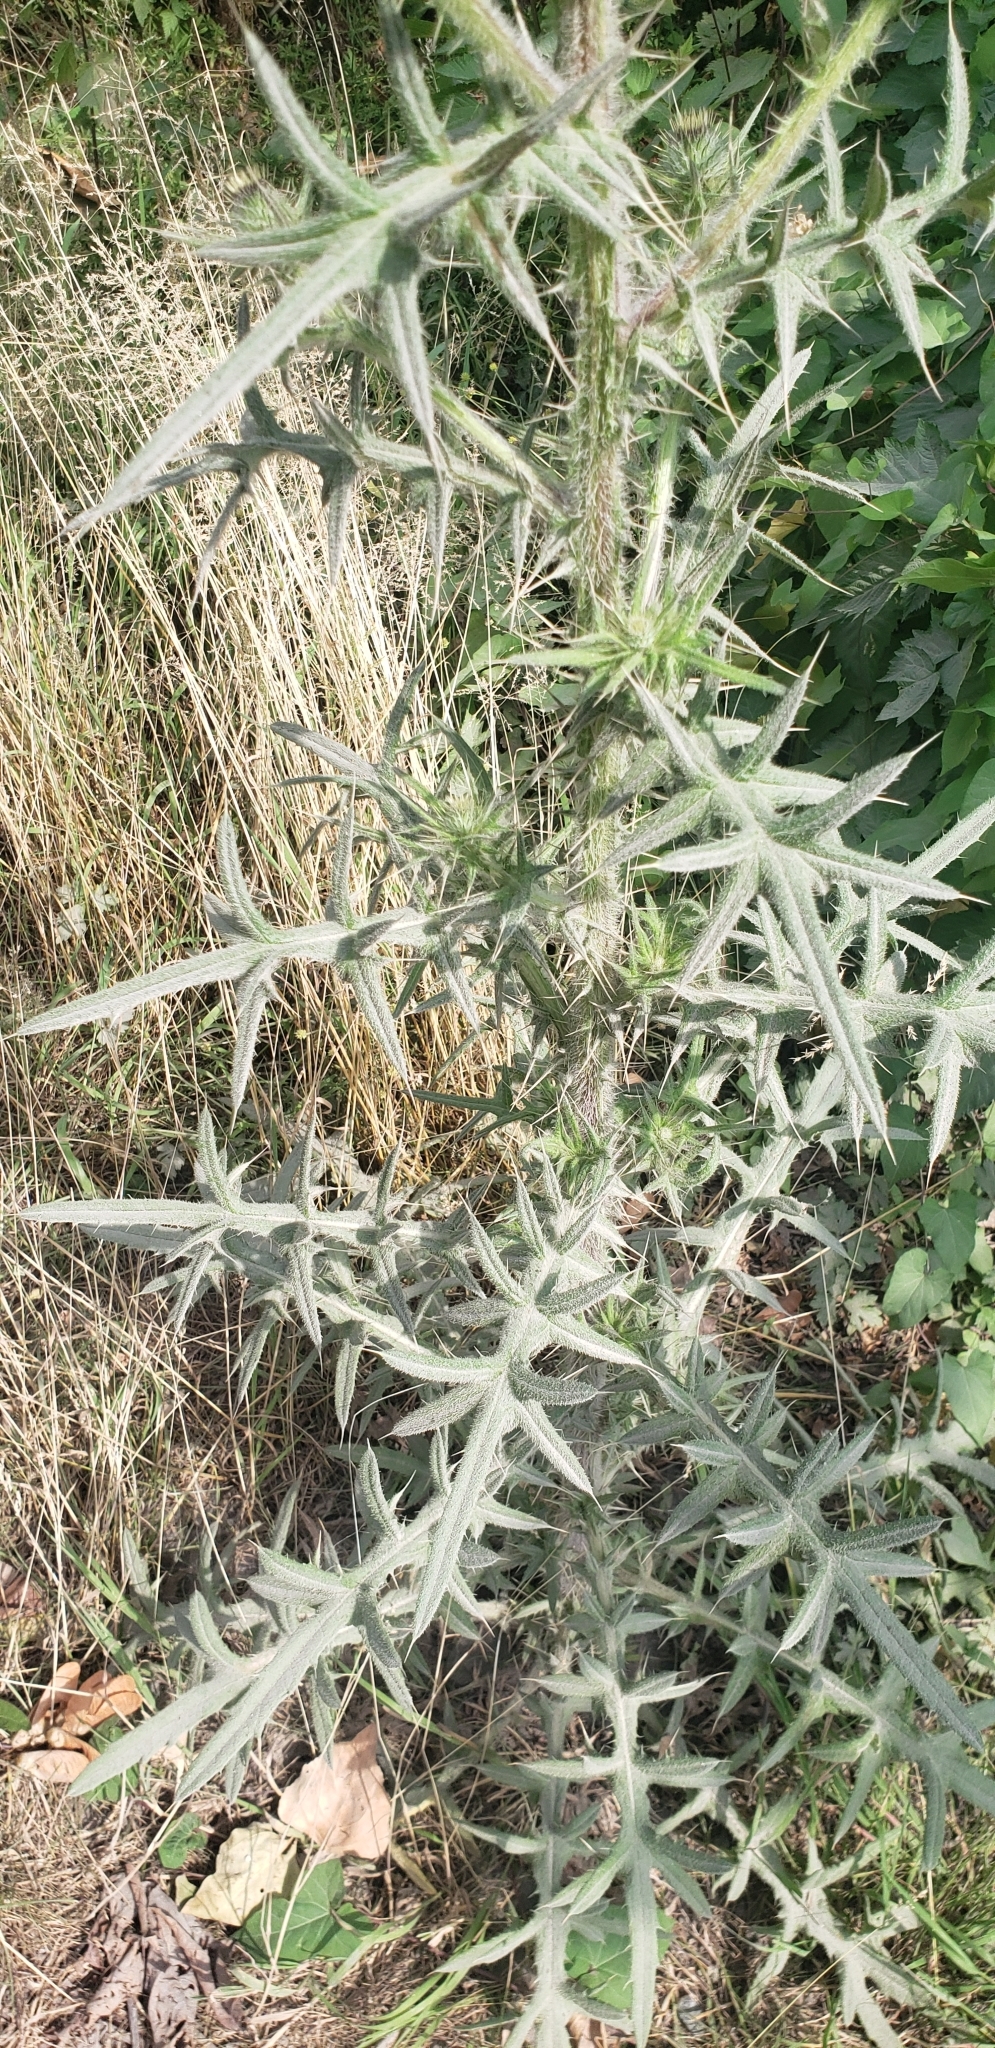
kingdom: Plantae
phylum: Tracheophyta
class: Magnoliopsida
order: Asterales
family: Asteraceae
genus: Cirsium
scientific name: Cirsium vulgare
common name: Bull thistle
